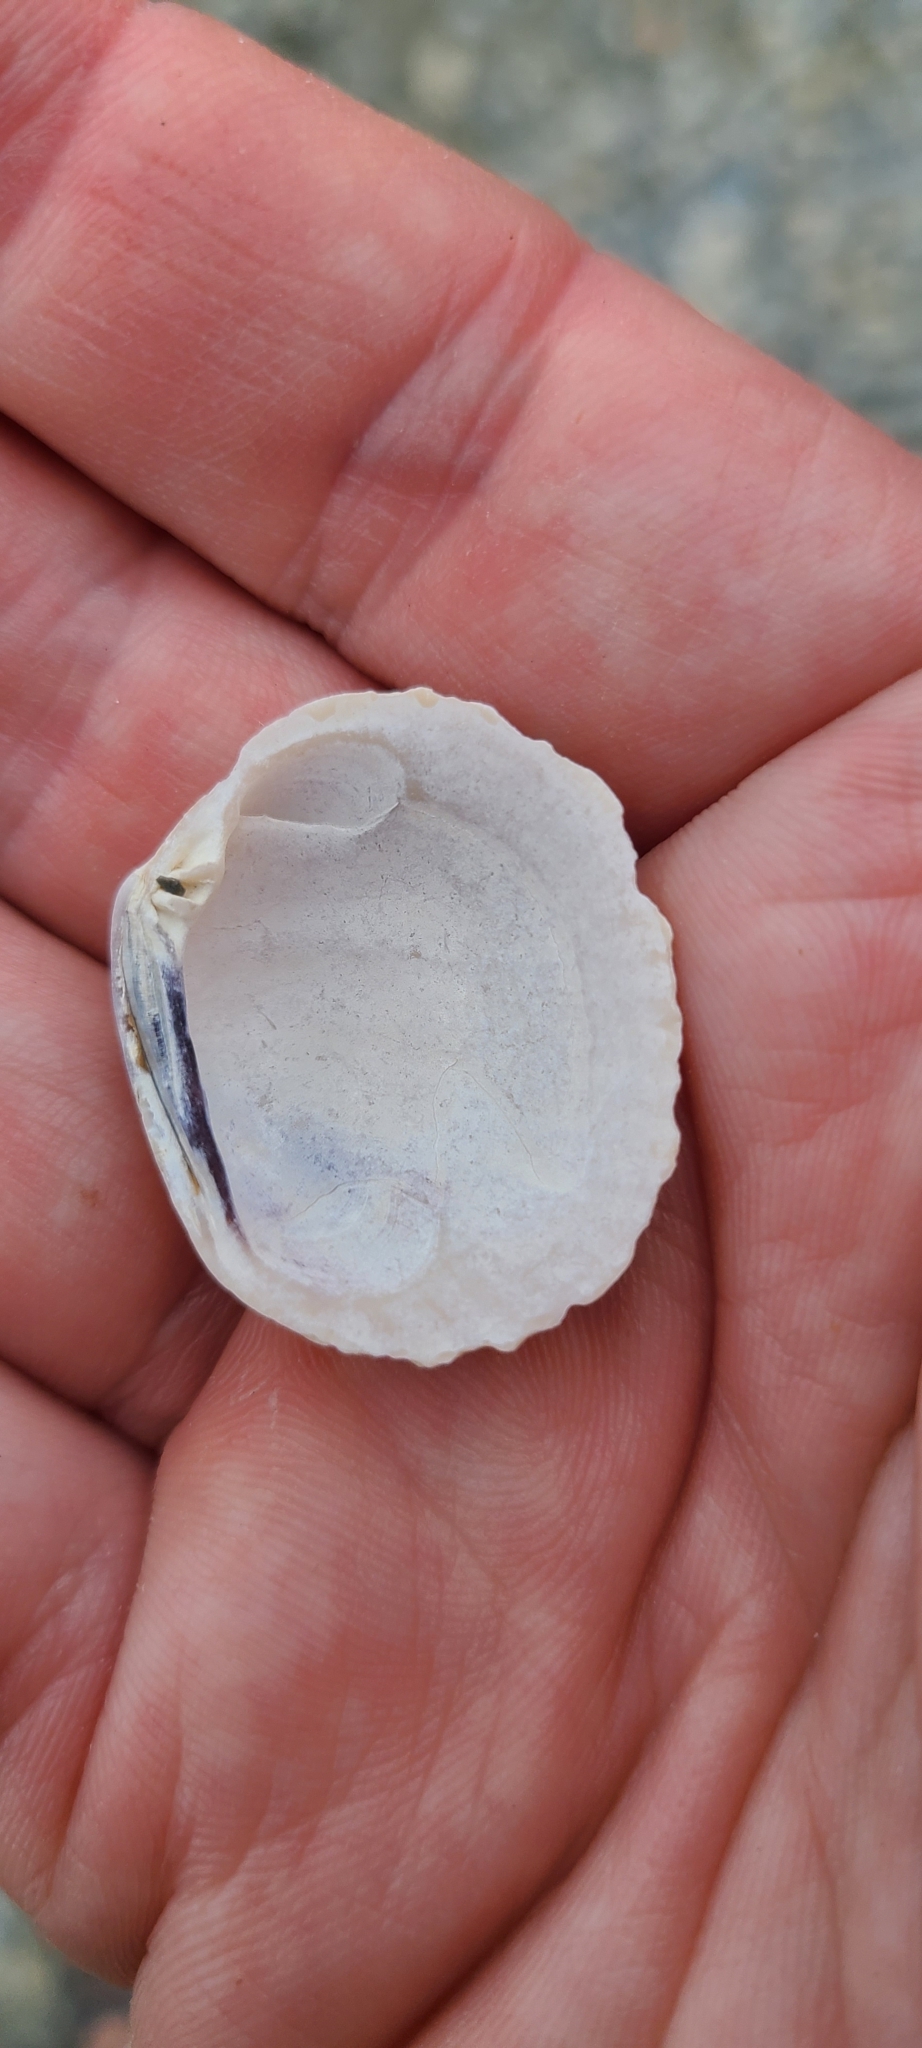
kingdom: Animalia
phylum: Mollusca
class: Bivalvia
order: Venerida
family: Veneridae
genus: Leukoma
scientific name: Leukoma crassicosta
